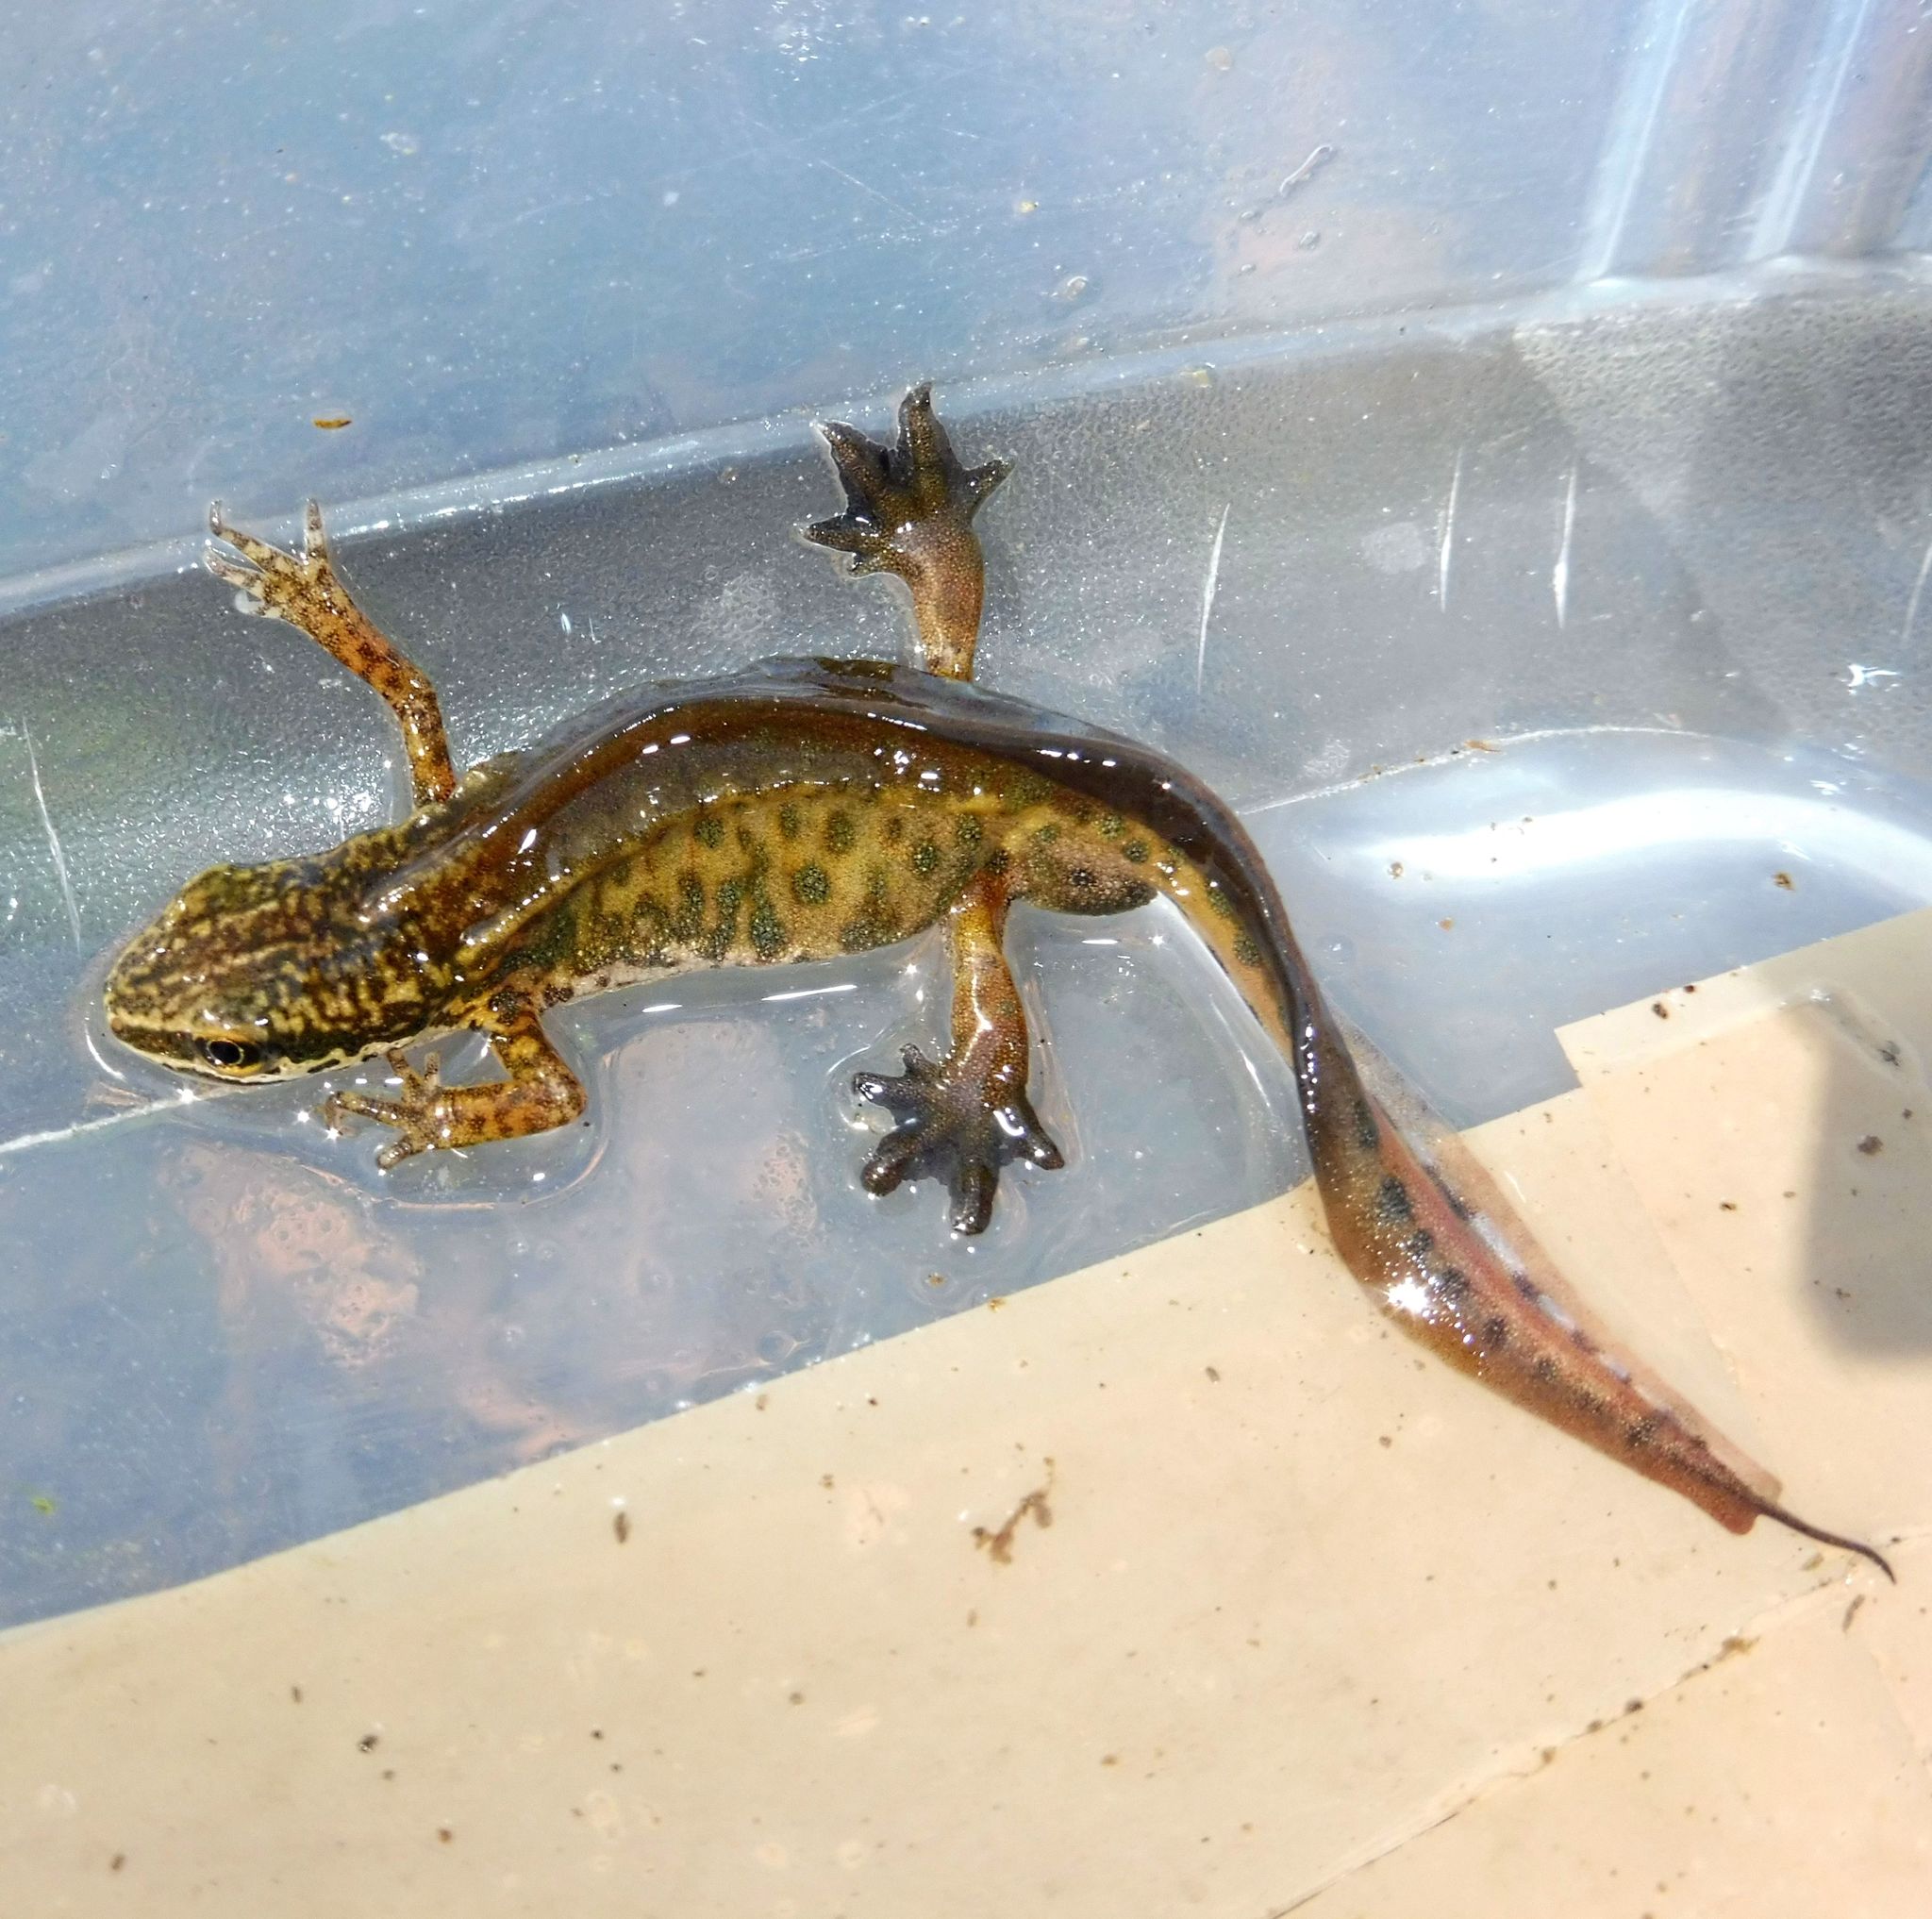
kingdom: Animalia
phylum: Chordata
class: Amphibia
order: Caudata
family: Salamandridae
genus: Lissotriton
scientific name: Lissotriton helveticus
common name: Palmate newt
